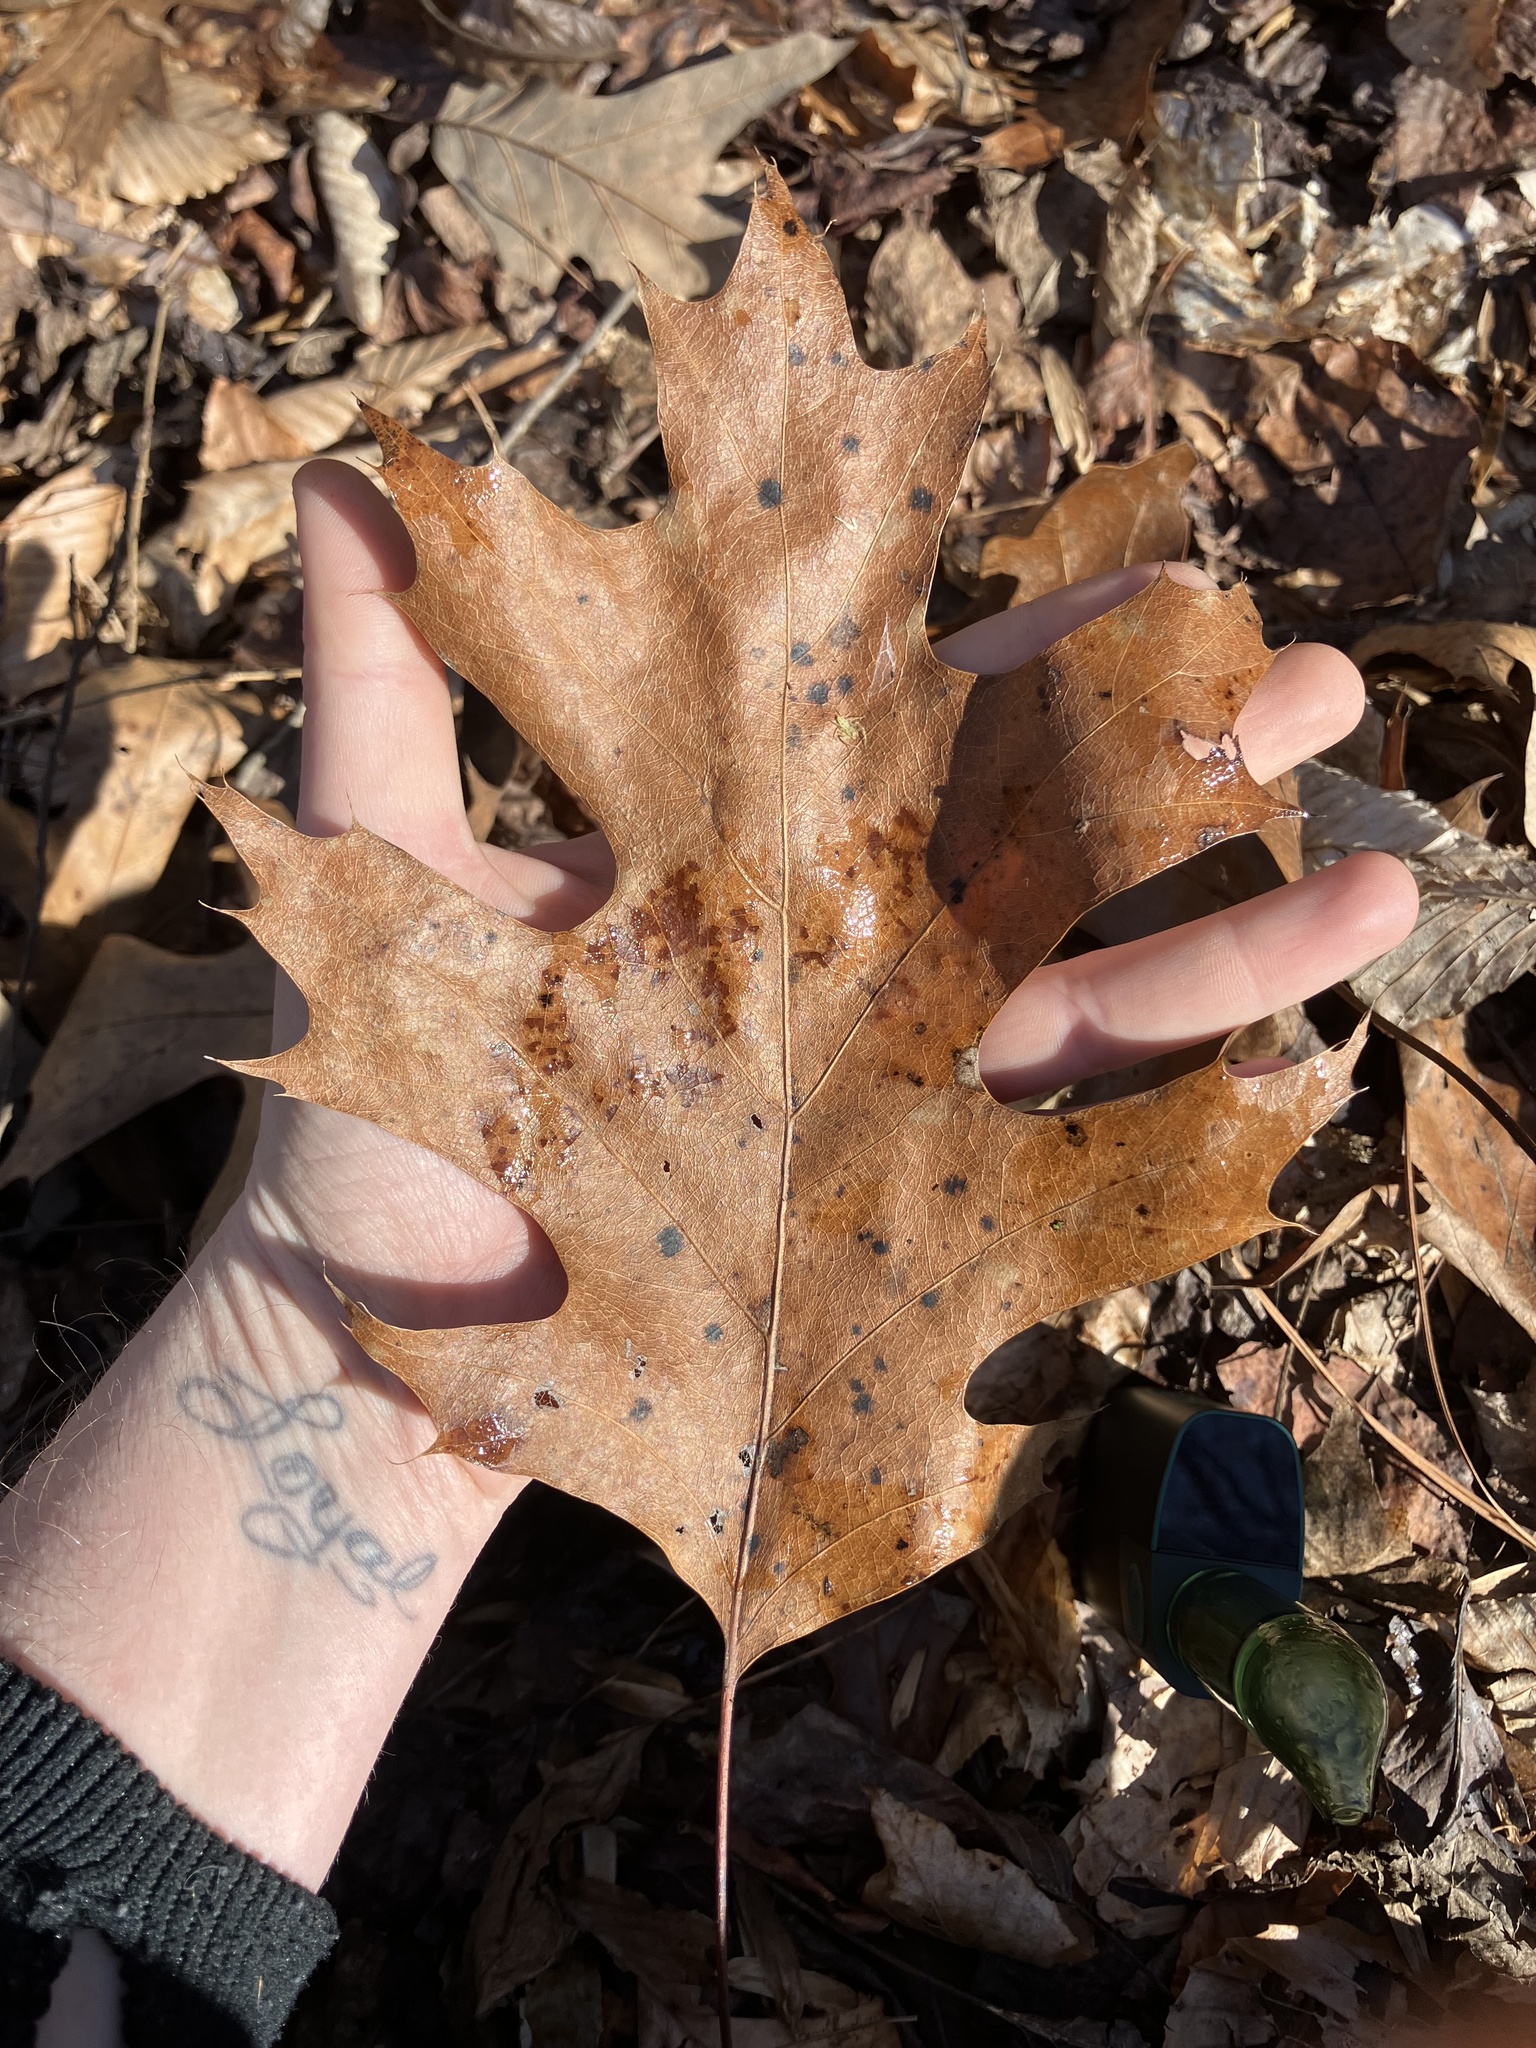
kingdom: Plantae
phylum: Tracheophyta
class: Magnoliopsida
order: Fagales
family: Fagaceae
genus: Quercus
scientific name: Quercus rubra
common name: Red oak
